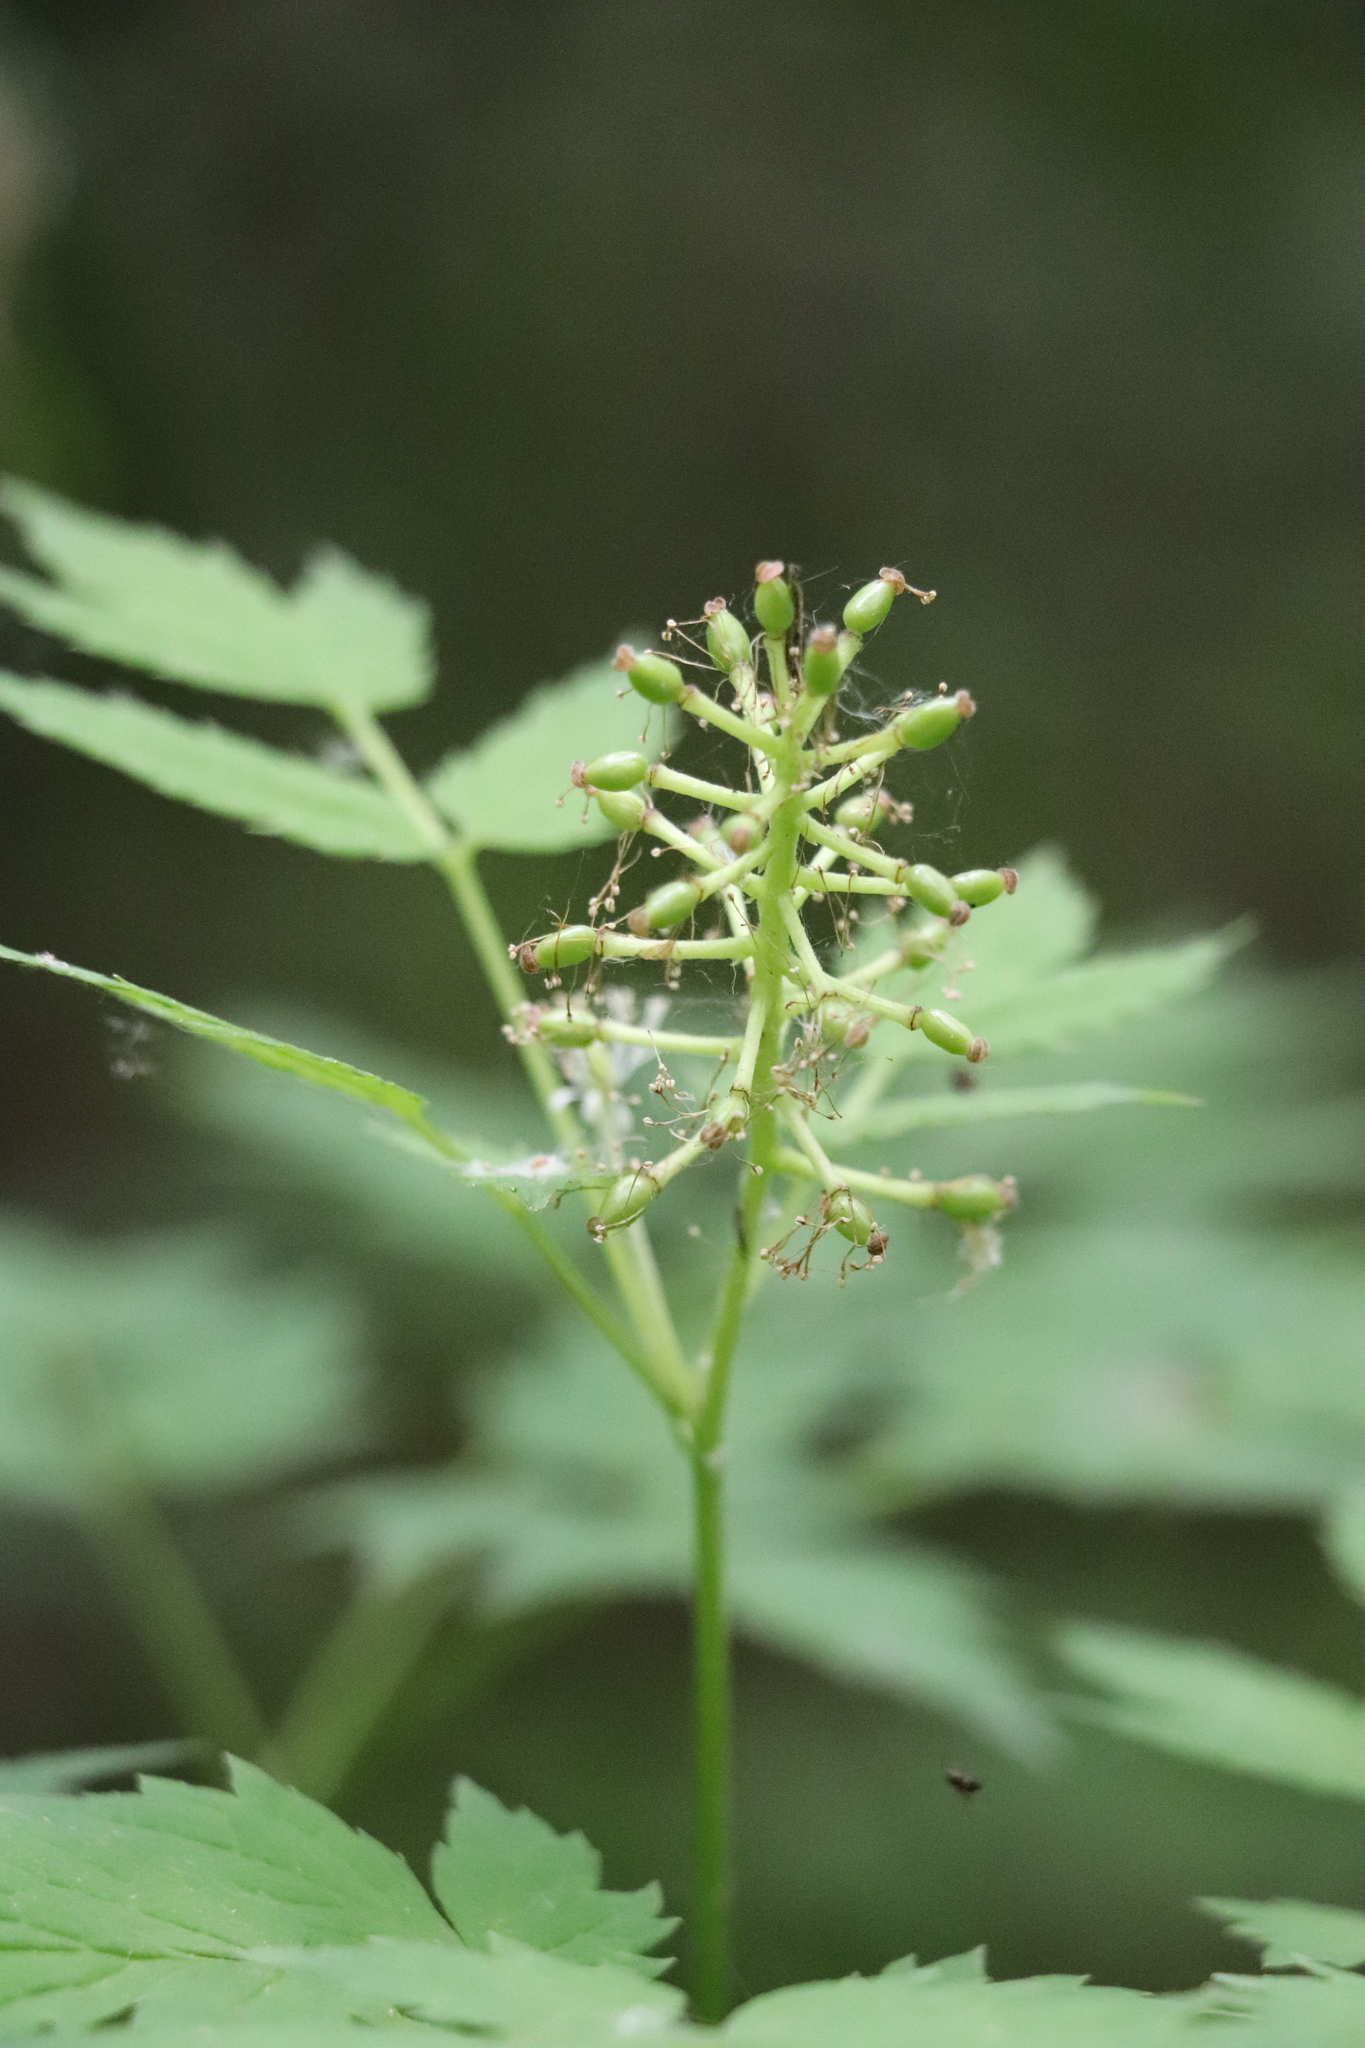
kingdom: Plantae
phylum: Tracheophyta
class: Magnoliopsida
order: Ranunculales
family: Ranunculaceae
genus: Actaea
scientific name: Actaea erythrocarpa
